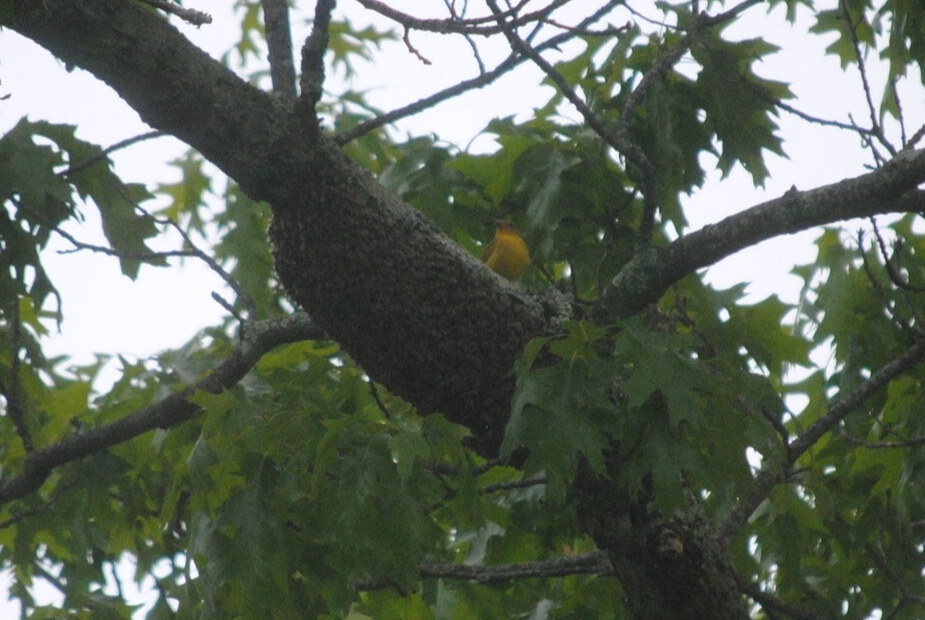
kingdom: Animalia
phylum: Chordata
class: Aves
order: Passeriformes
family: Cardinalidae
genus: Piranga
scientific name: Piranga rubra
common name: Summer tanager
